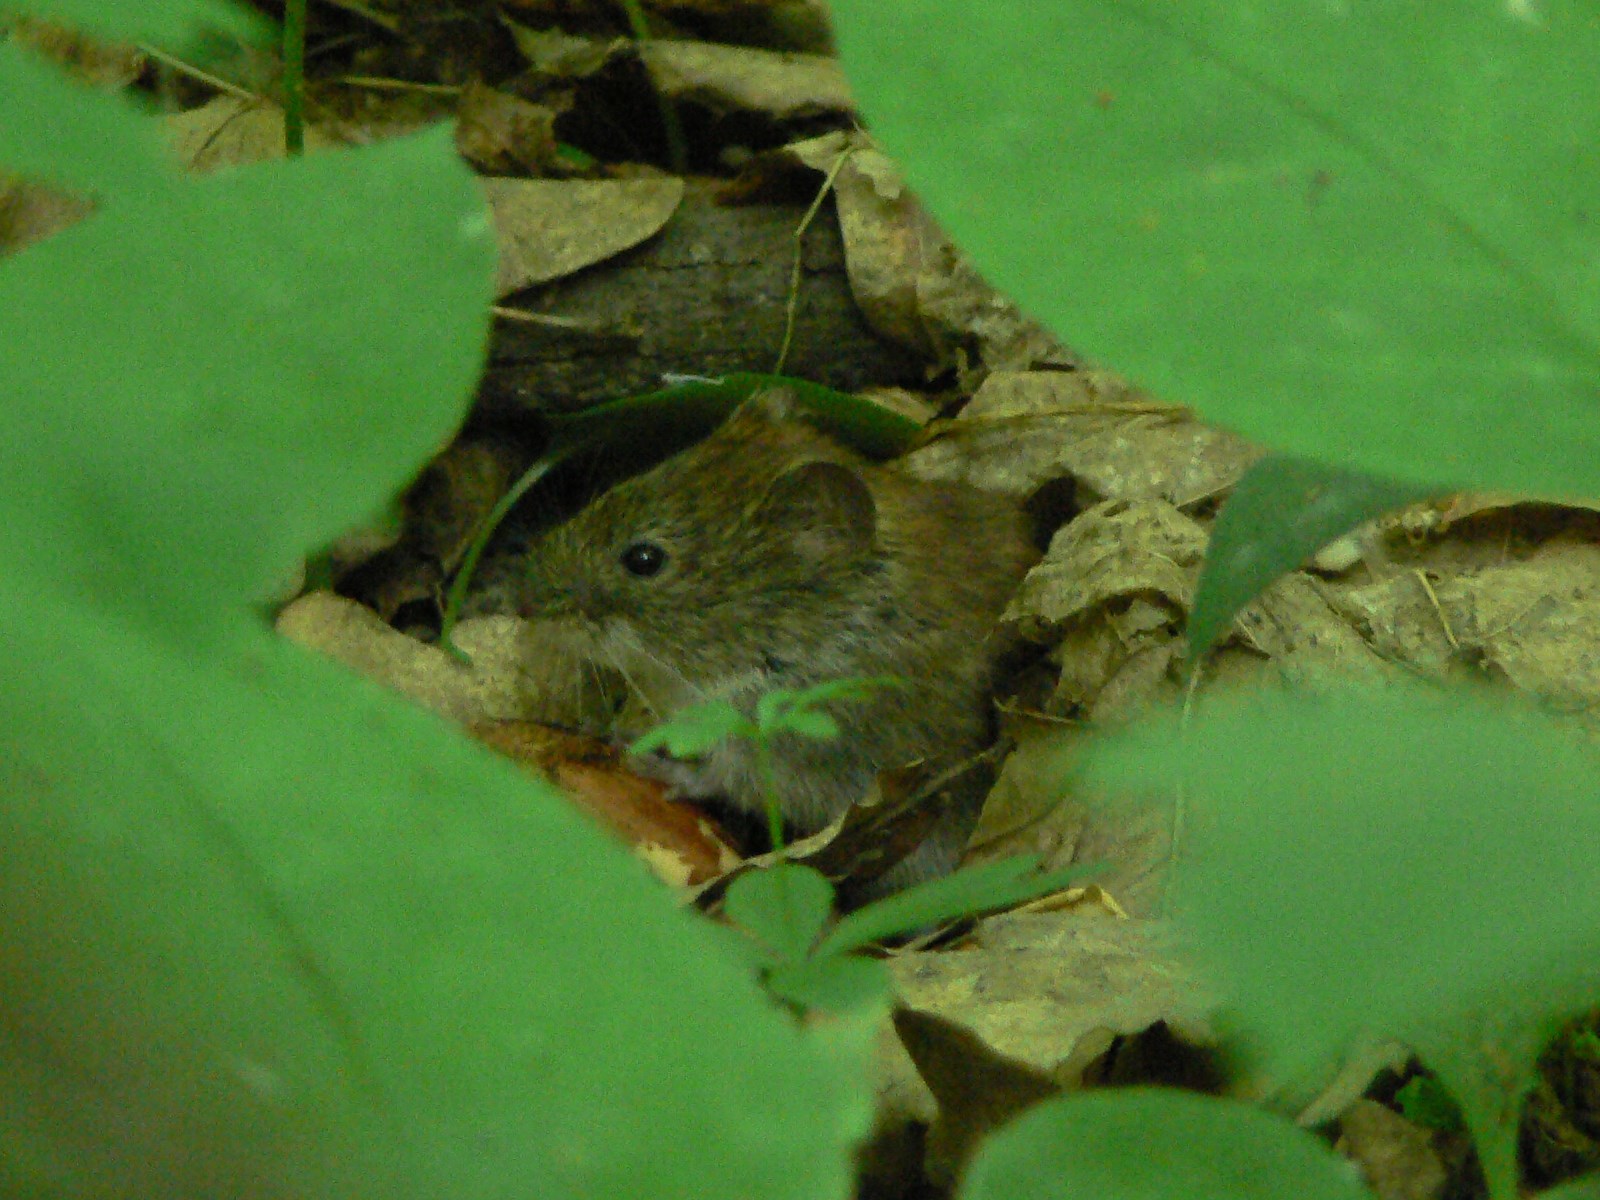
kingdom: Animalia
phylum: Chordata
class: Mammalia
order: Rodentia
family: Cricetidae
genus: Myodes
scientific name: Myodes glareolus
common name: Bank vole
